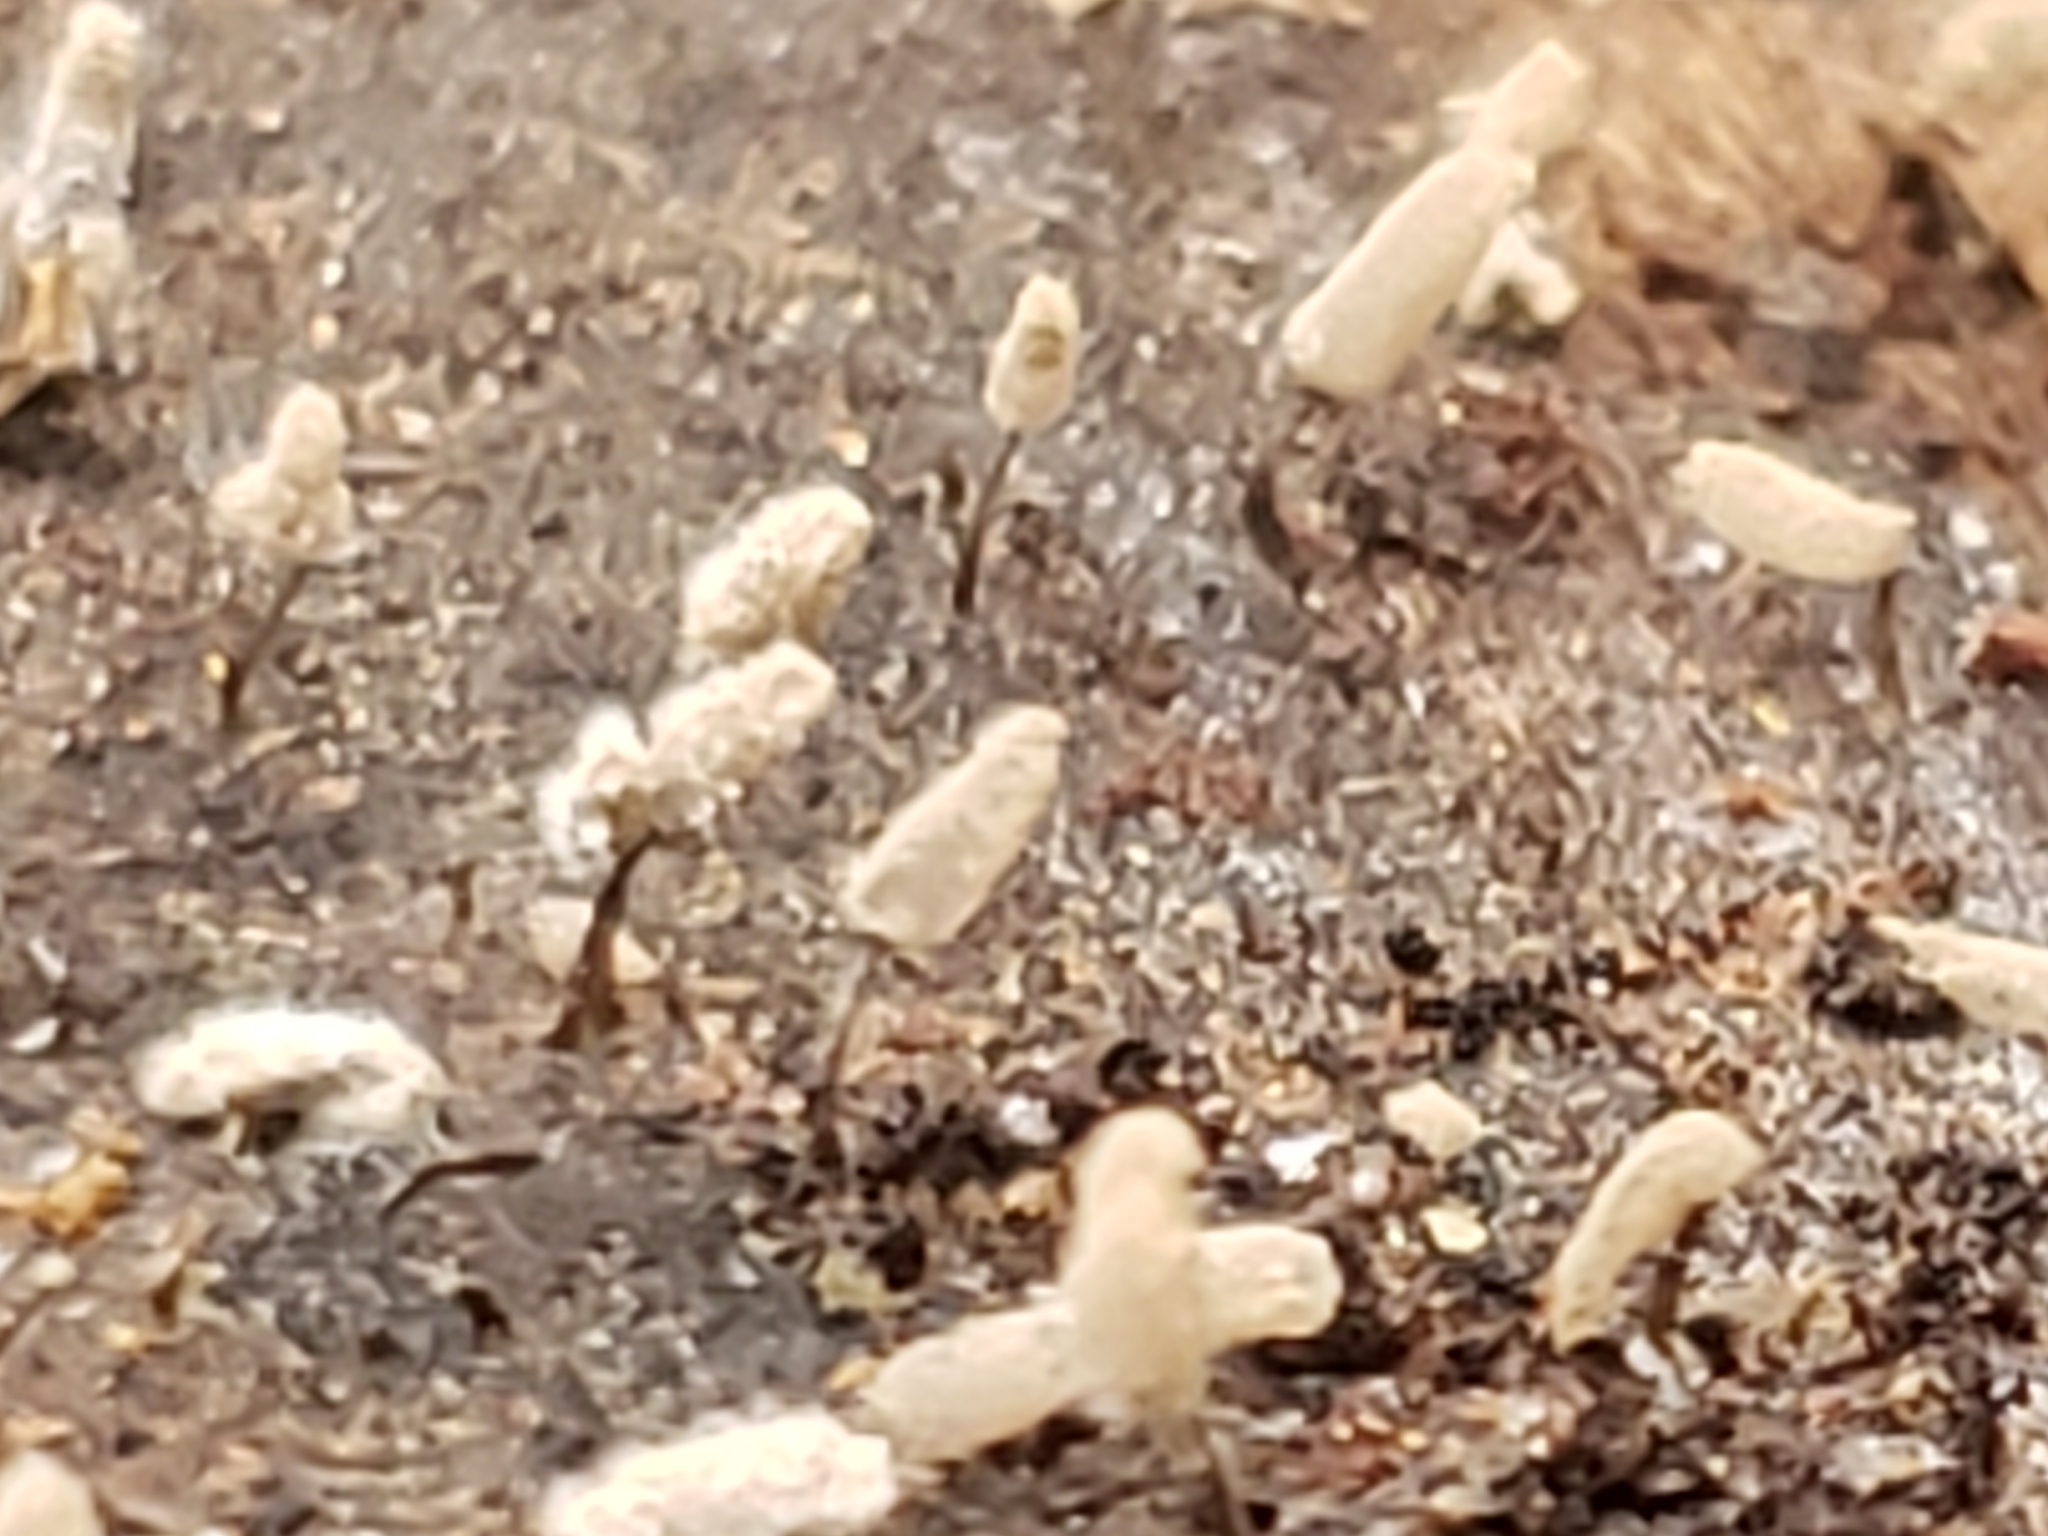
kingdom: Protozoa
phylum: Mycetozoa
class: Myxomycetes
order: Trichiales
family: Arcyriaceae
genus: Arcyria
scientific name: Arcyria cinerea
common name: White carnival candy slime mold
